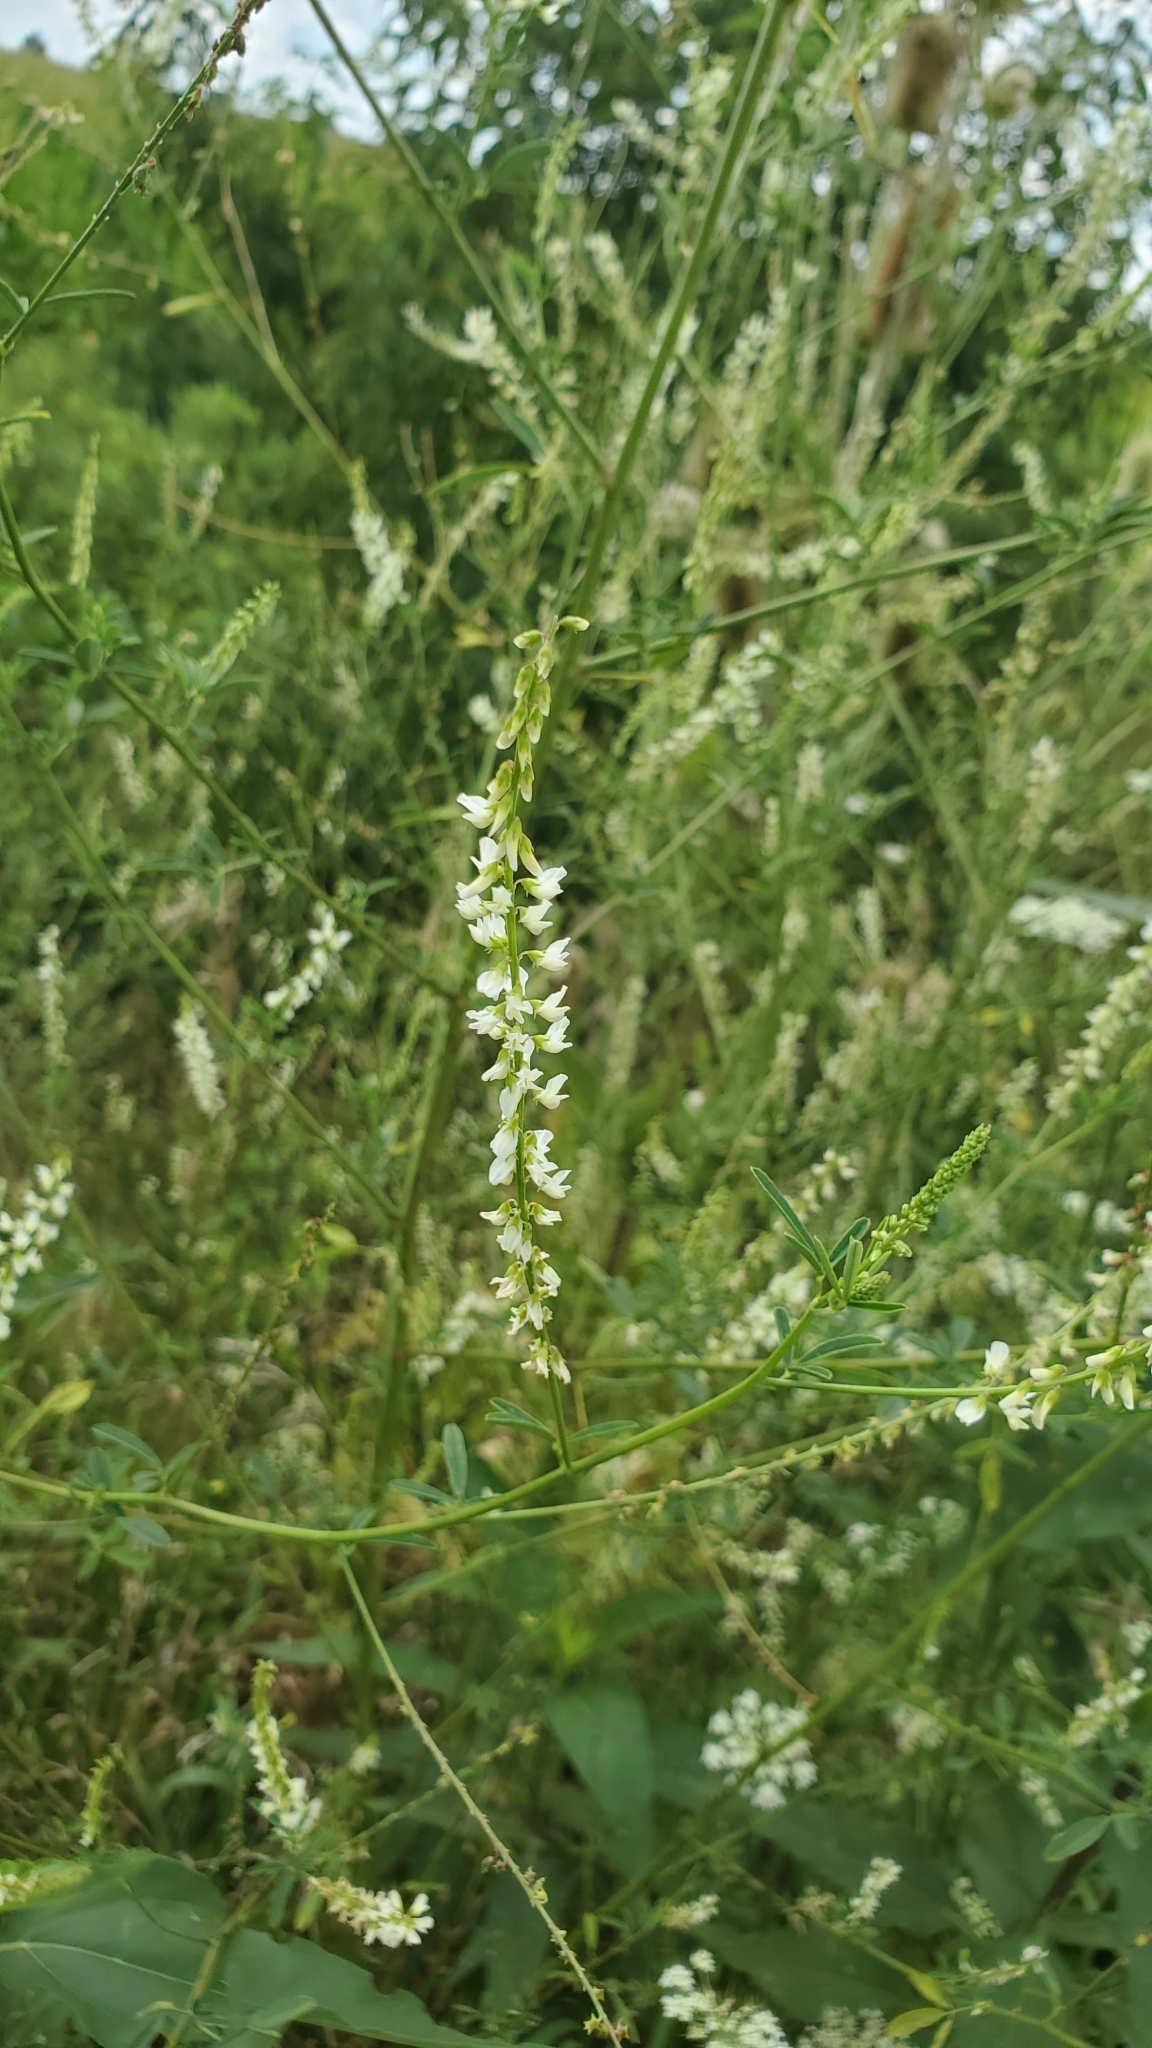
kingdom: Plantae
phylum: Tracheophyta
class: Magnoliopsida
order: Fabales
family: Fabaceae
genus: Melilotus
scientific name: Melilotus albus
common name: White melilot
